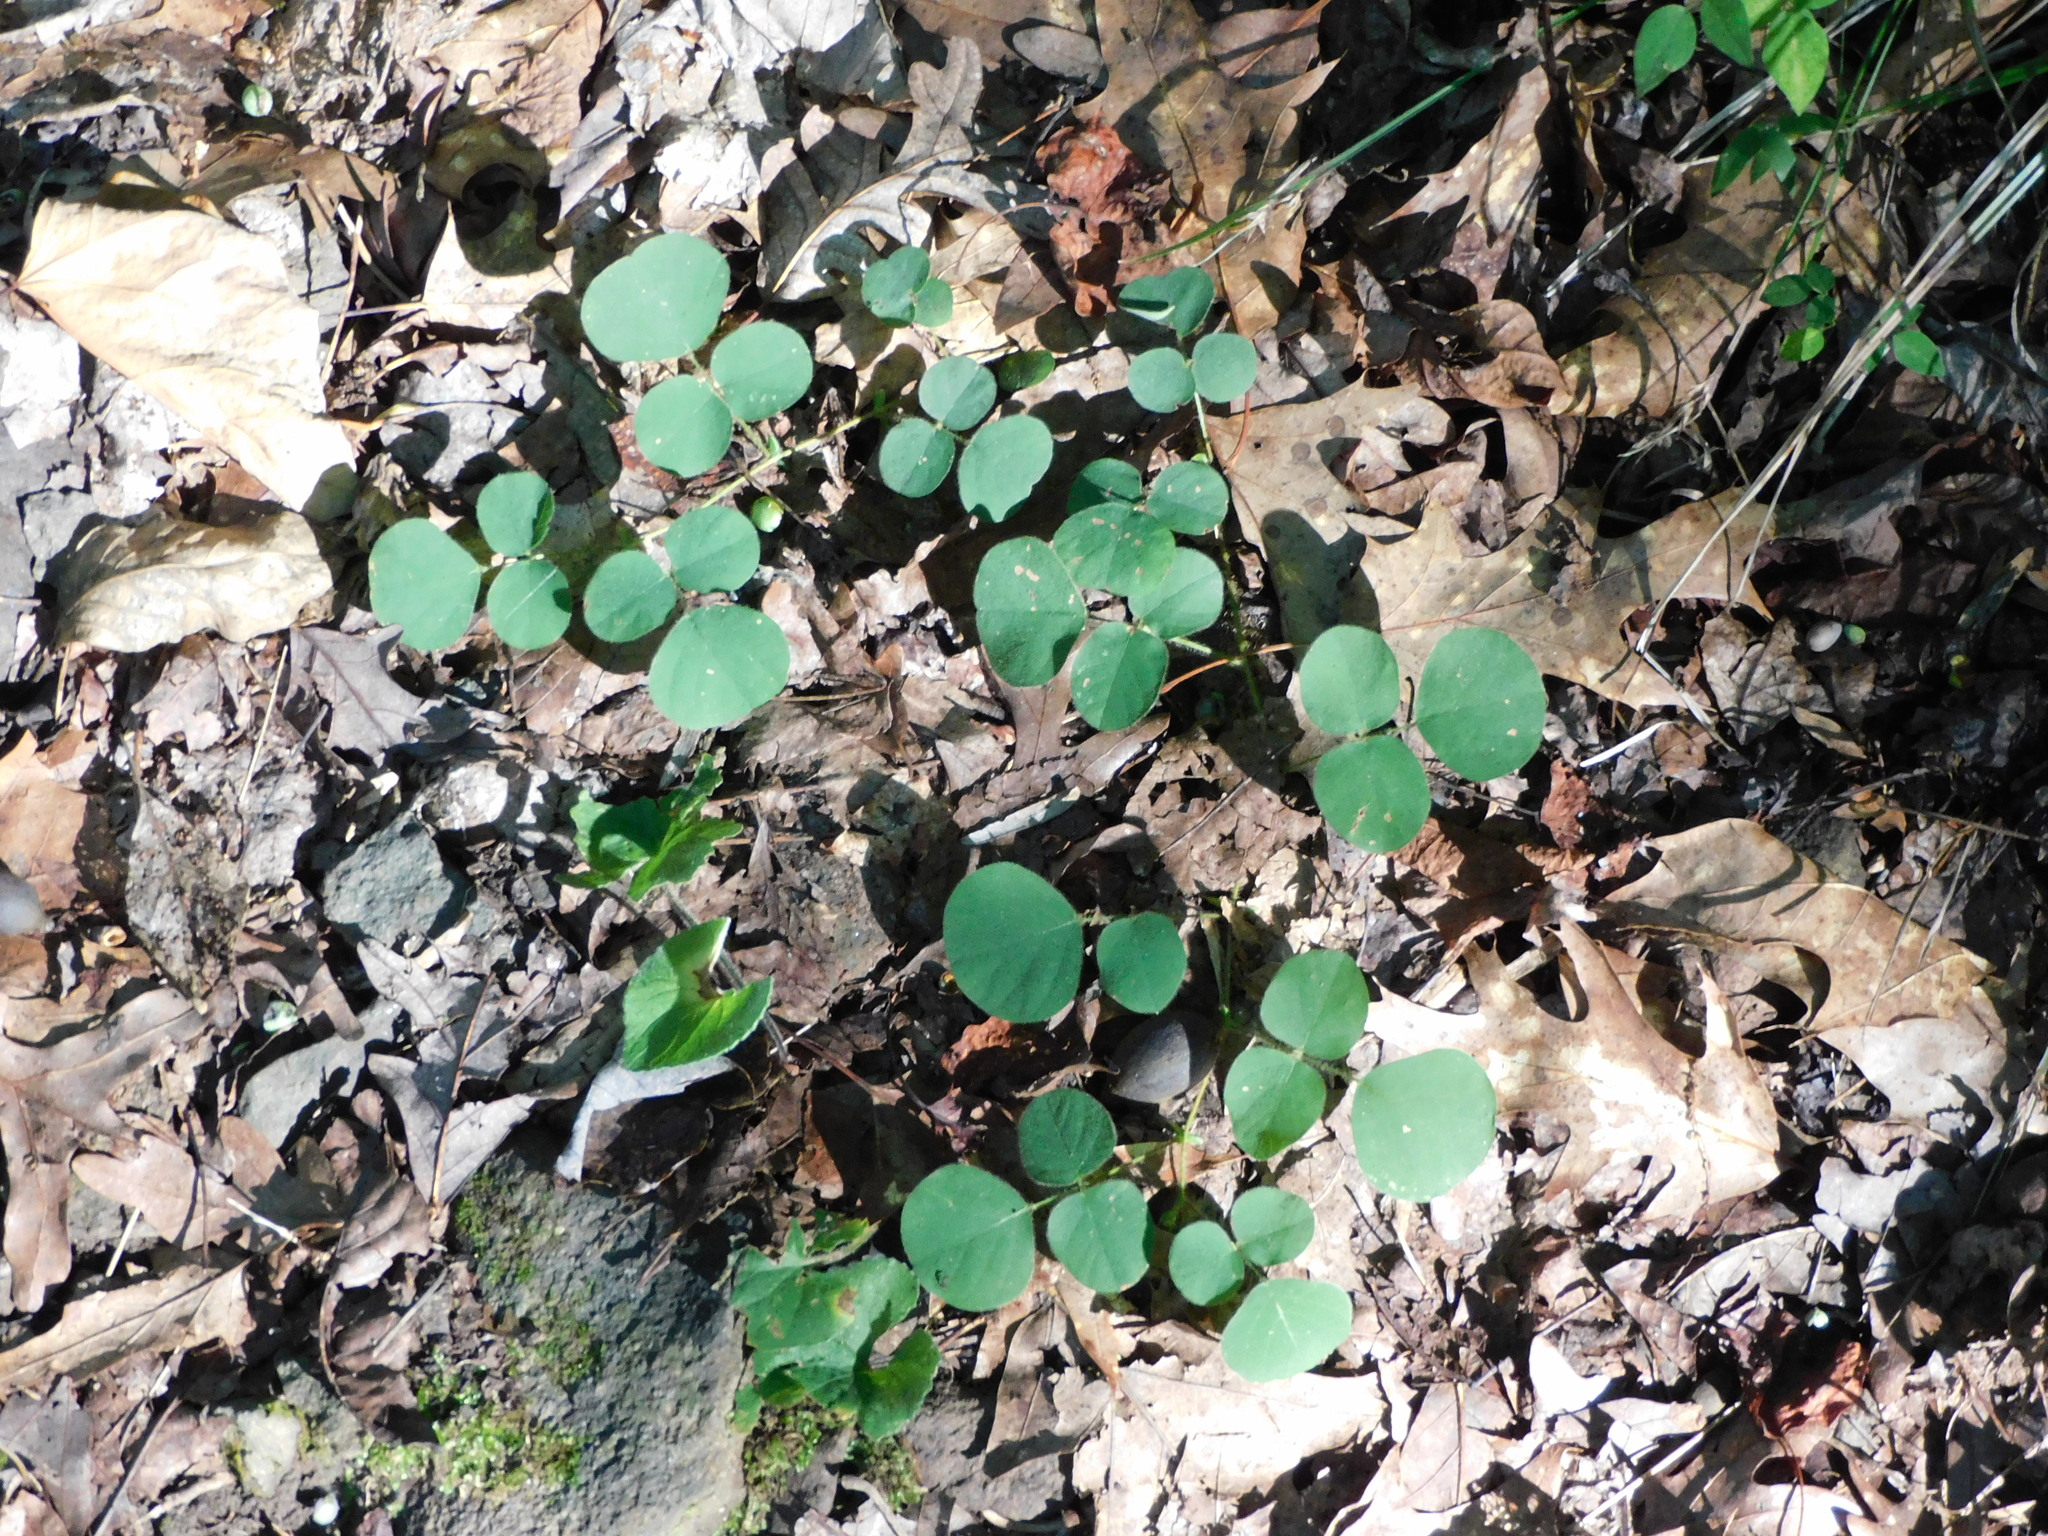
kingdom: Plantae
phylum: Tracheophyta
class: Magnoliopsida
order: Fabales
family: Fabaceae
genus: Desmodium
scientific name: Desmodium rotundifolium
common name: Dollarleaf
